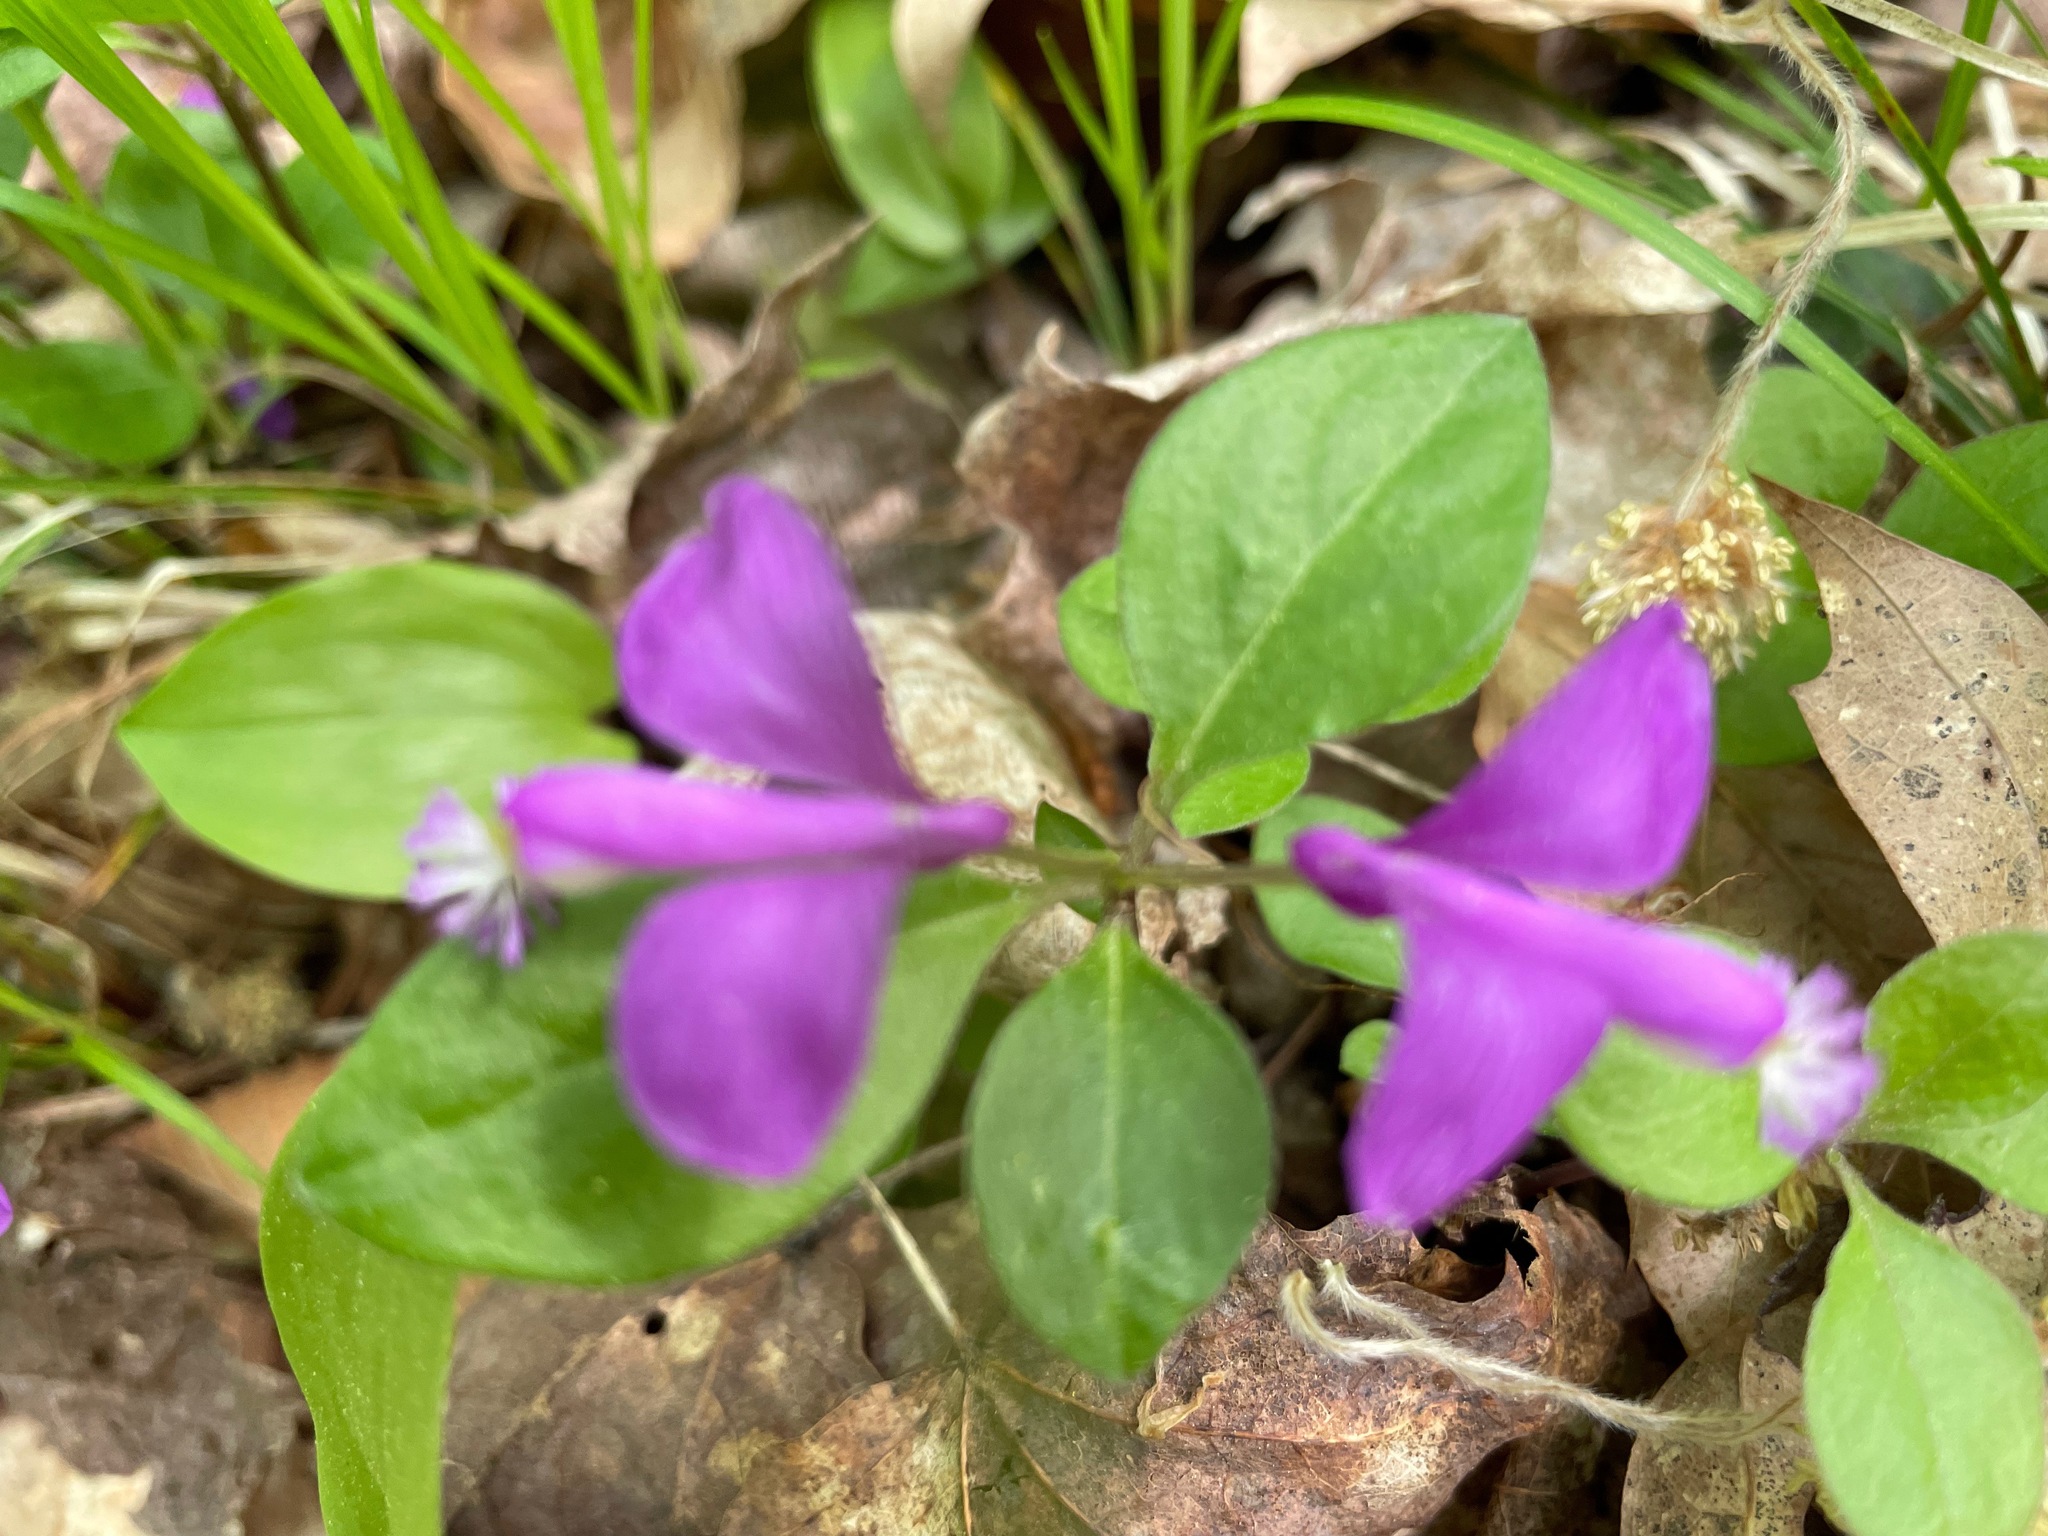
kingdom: Plantae
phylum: Tracheophyta
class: Magnoliopsida
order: Fabales
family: Polygalaceae
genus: Polygaloides
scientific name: Polygaloides paucifolia
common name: Bird-on-the-wing
